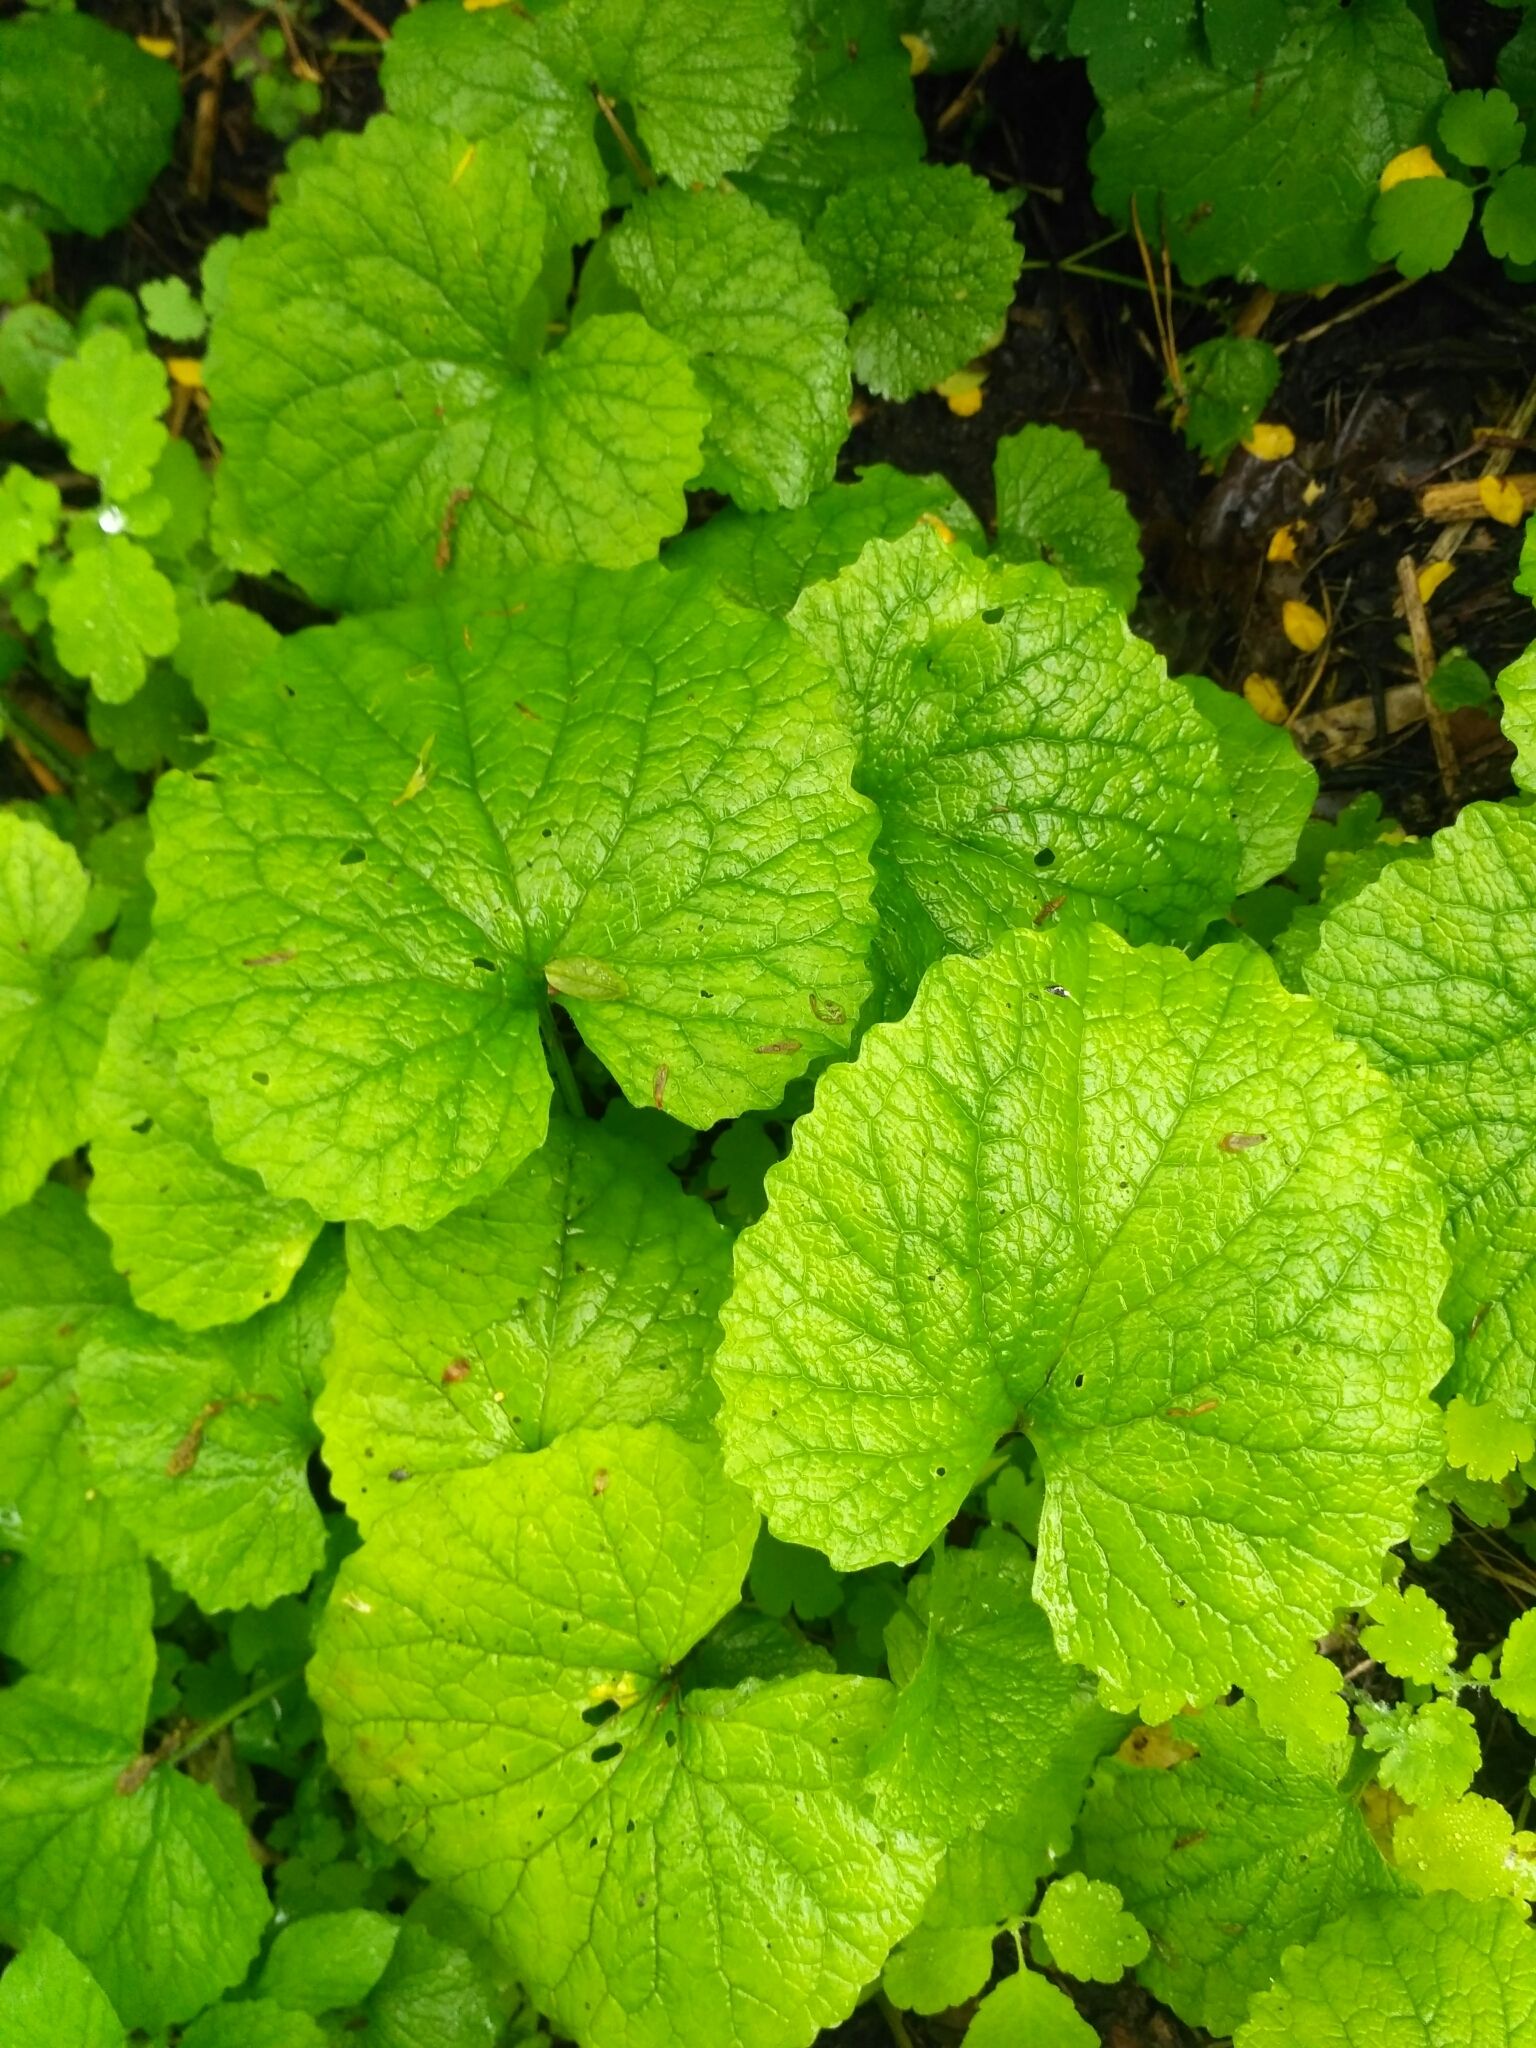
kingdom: Plantae
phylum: Tracheophyta
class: Magnoliopsida
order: Brassicales
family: Brassicaceae
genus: Alliaria
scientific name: Alliaria petiolata
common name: Garlic mustard
